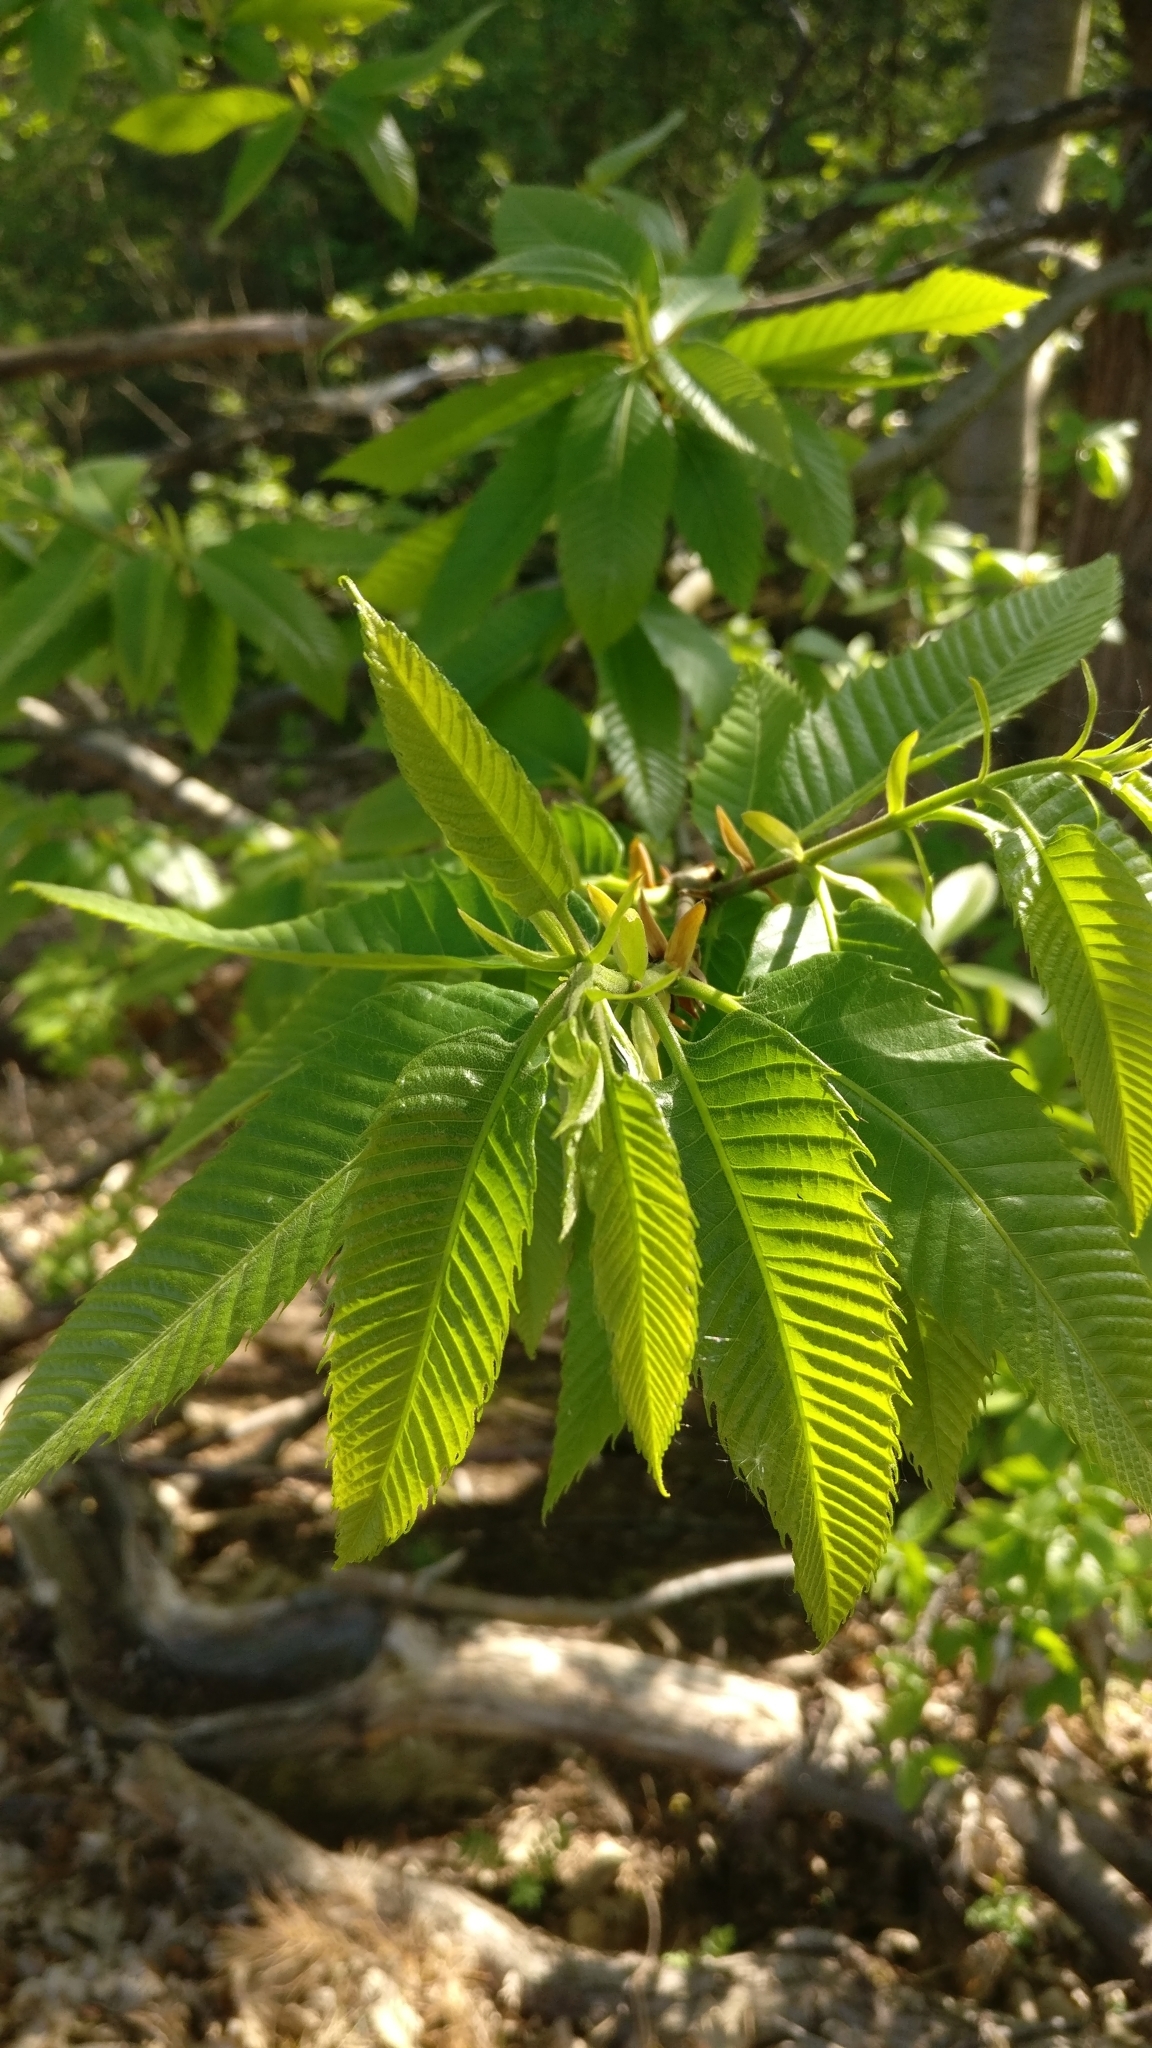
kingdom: Plantae
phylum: Tracheophyta
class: Magnoliopsida
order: Fagales
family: Fagaceae
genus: Castanea
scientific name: Castanea sativa
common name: Sweet chestnut
